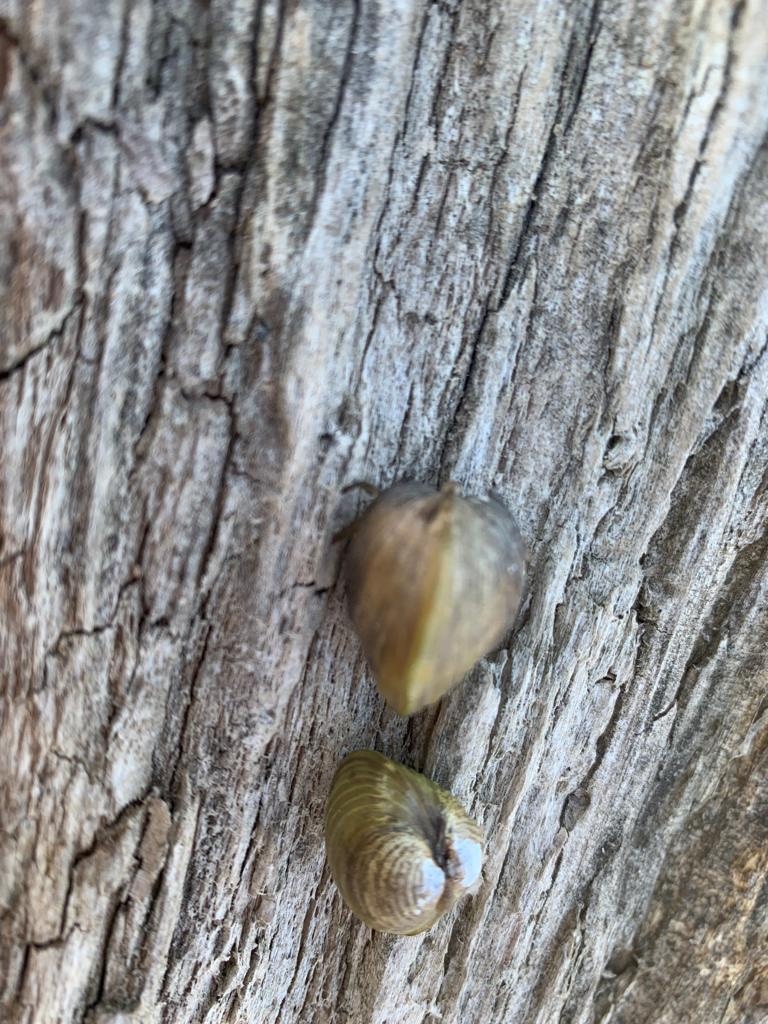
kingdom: Animalia
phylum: Mollusca
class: Bivalvia
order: Venerida
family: Cyrenidae
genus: Corbicula
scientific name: Corbicula fluminea
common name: Asian clam
